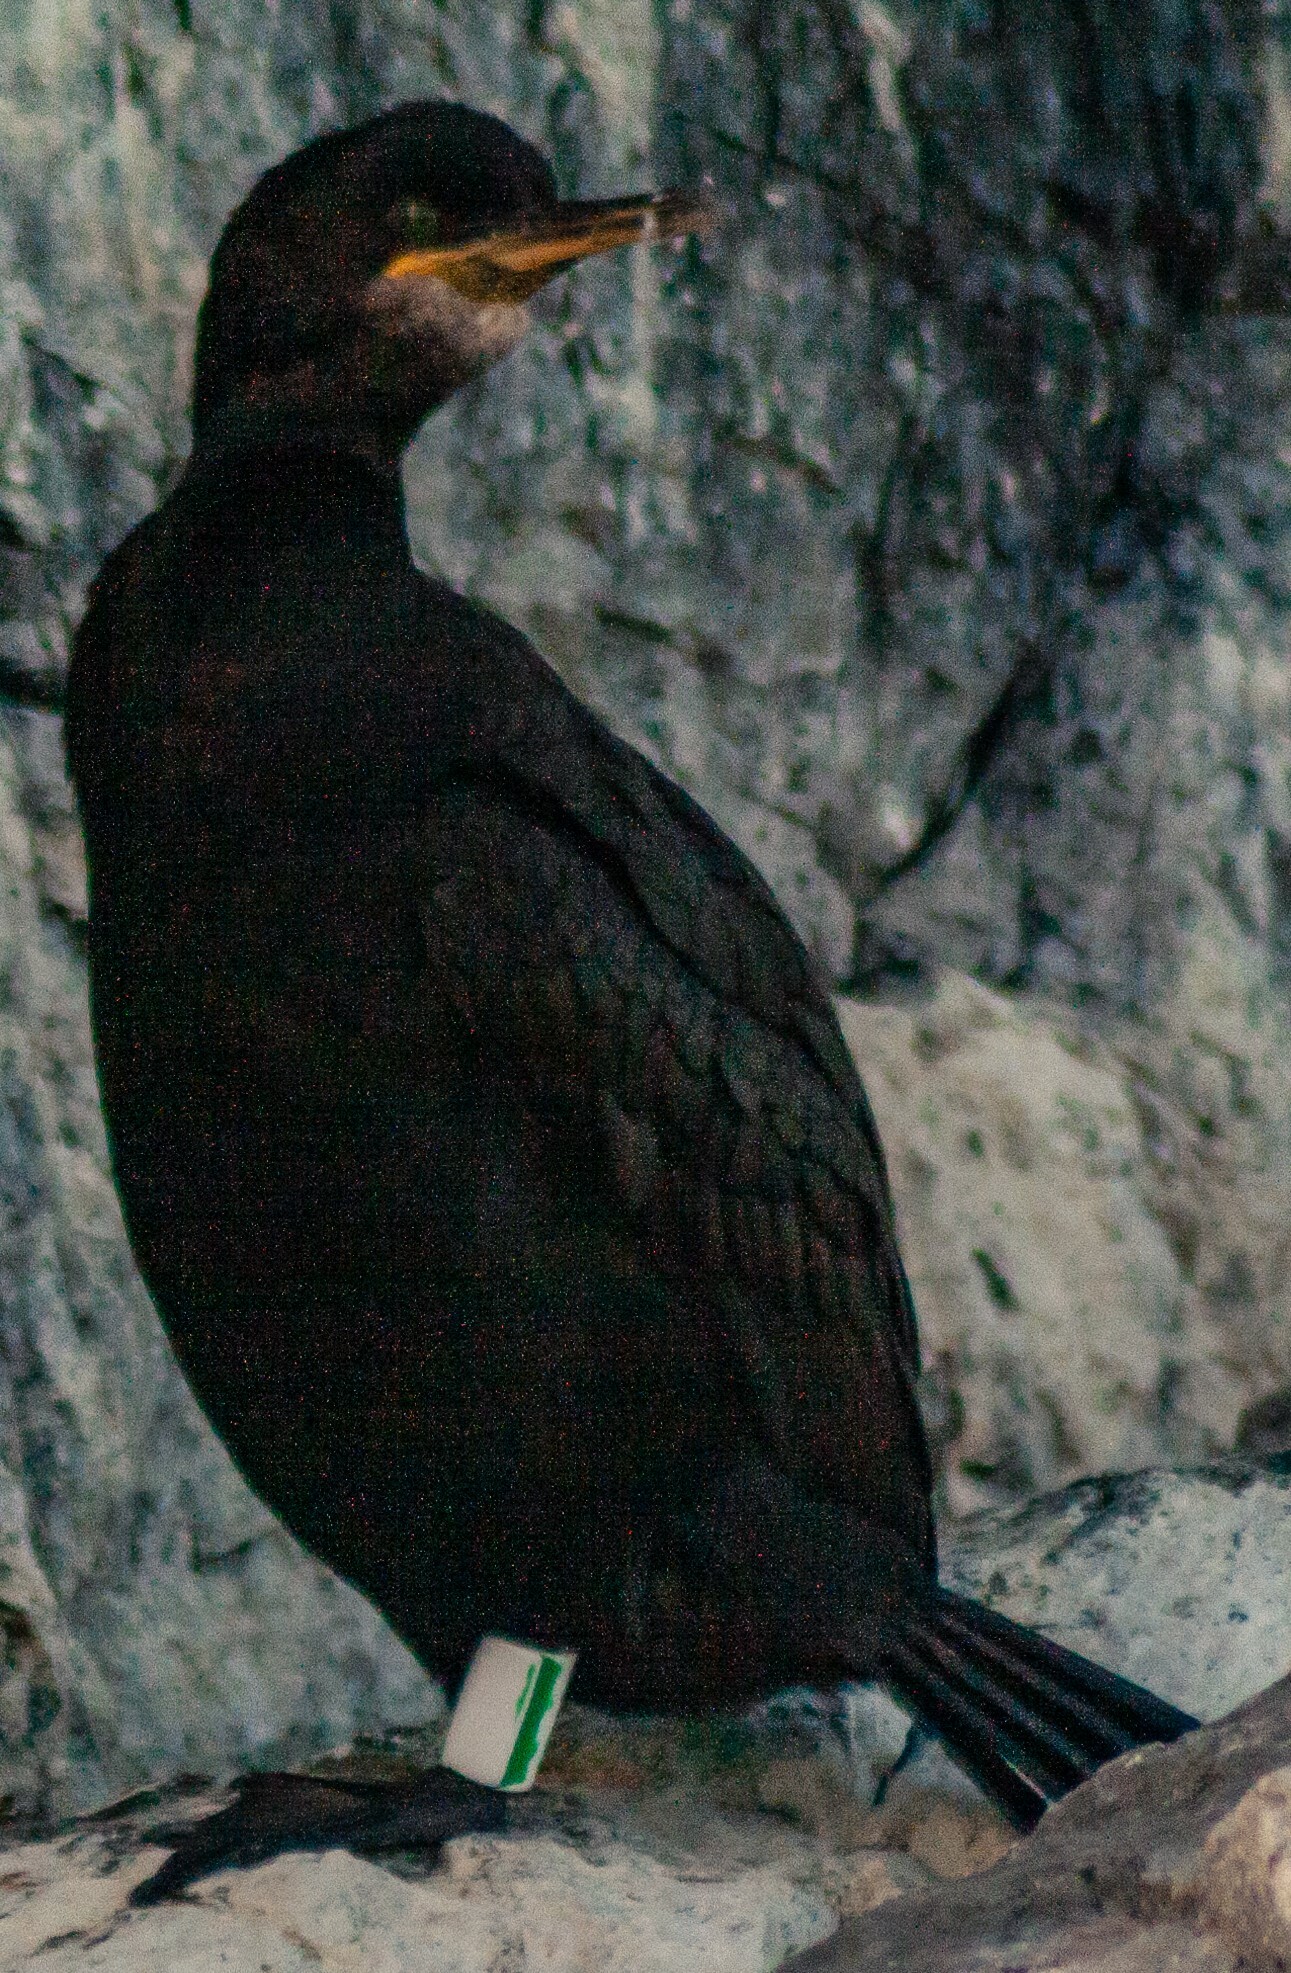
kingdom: Animalia
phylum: Chordata
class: Aves
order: Suliformes
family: Phalacrocoracidae
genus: Phalacrocorax
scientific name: Phalacrocorax aristotelis
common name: European shag
